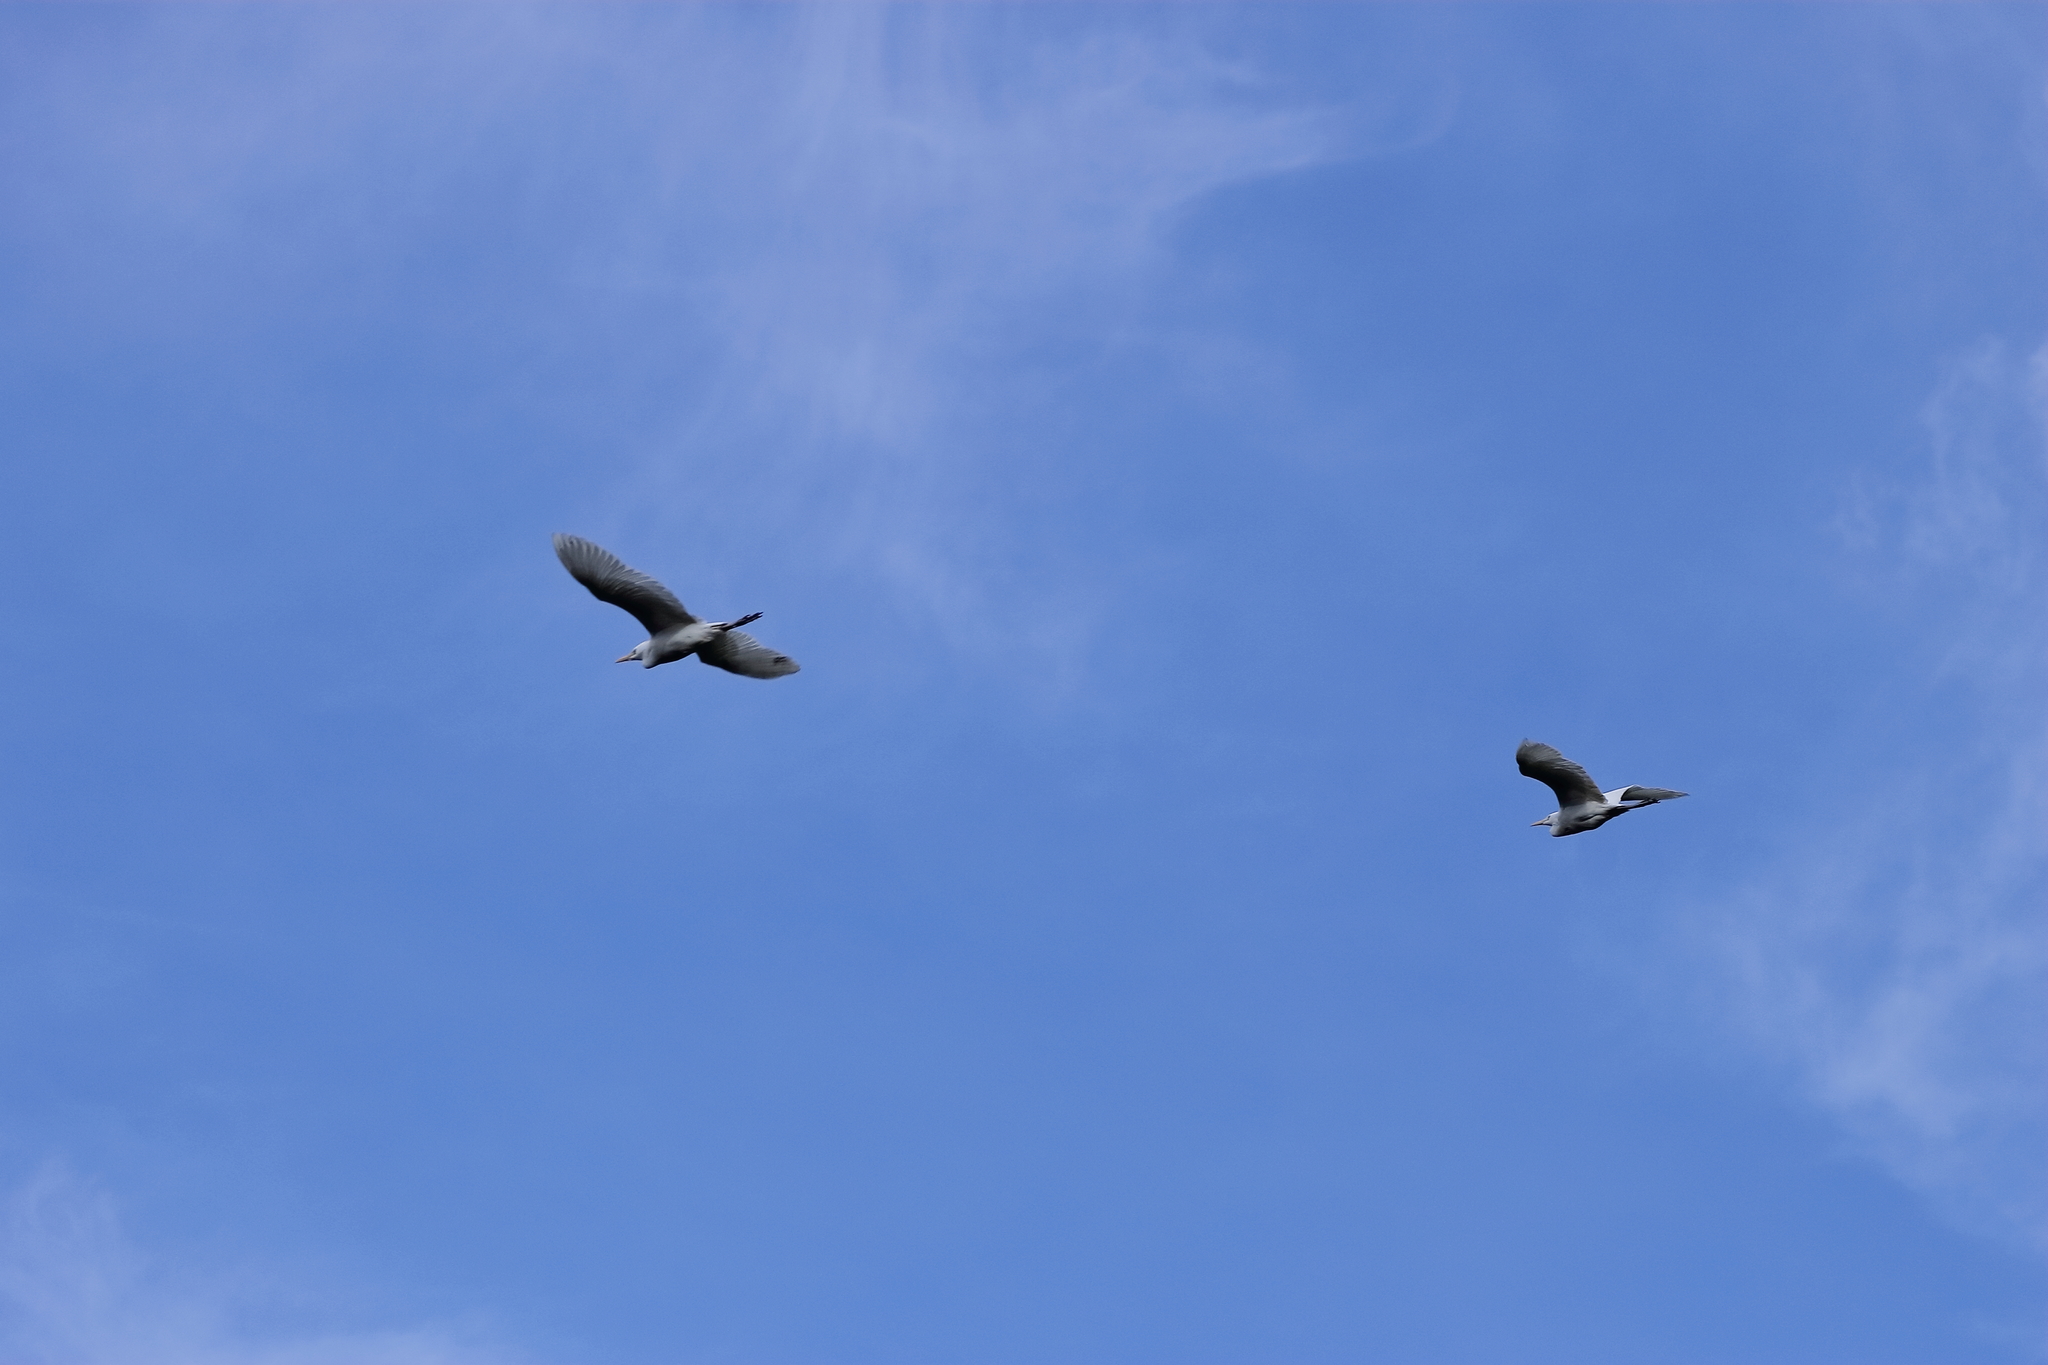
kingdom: Animalia
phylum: Chordata
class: Aves
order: Pelecaniformes
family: Ardeidae
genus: Bubulcus
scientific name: Bubulcus ibis
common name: Cattle egret
